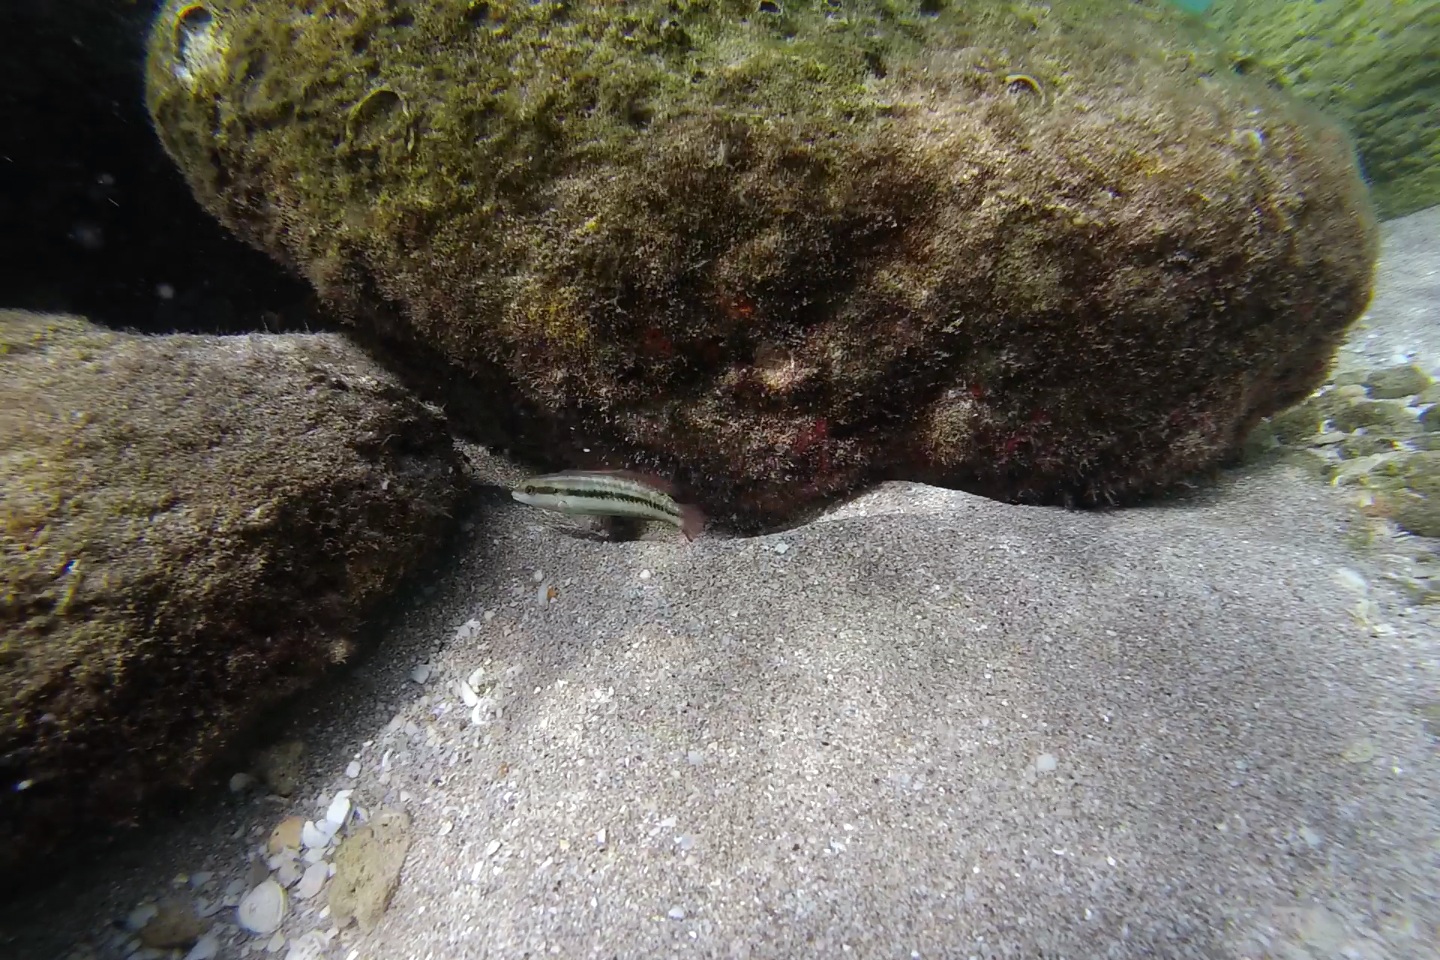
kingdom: Animalia
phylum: Chordata
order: Perciformes
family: Labridae
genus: Halichoeres
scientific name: Halichoeres bivittatus
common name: Slippery dick
